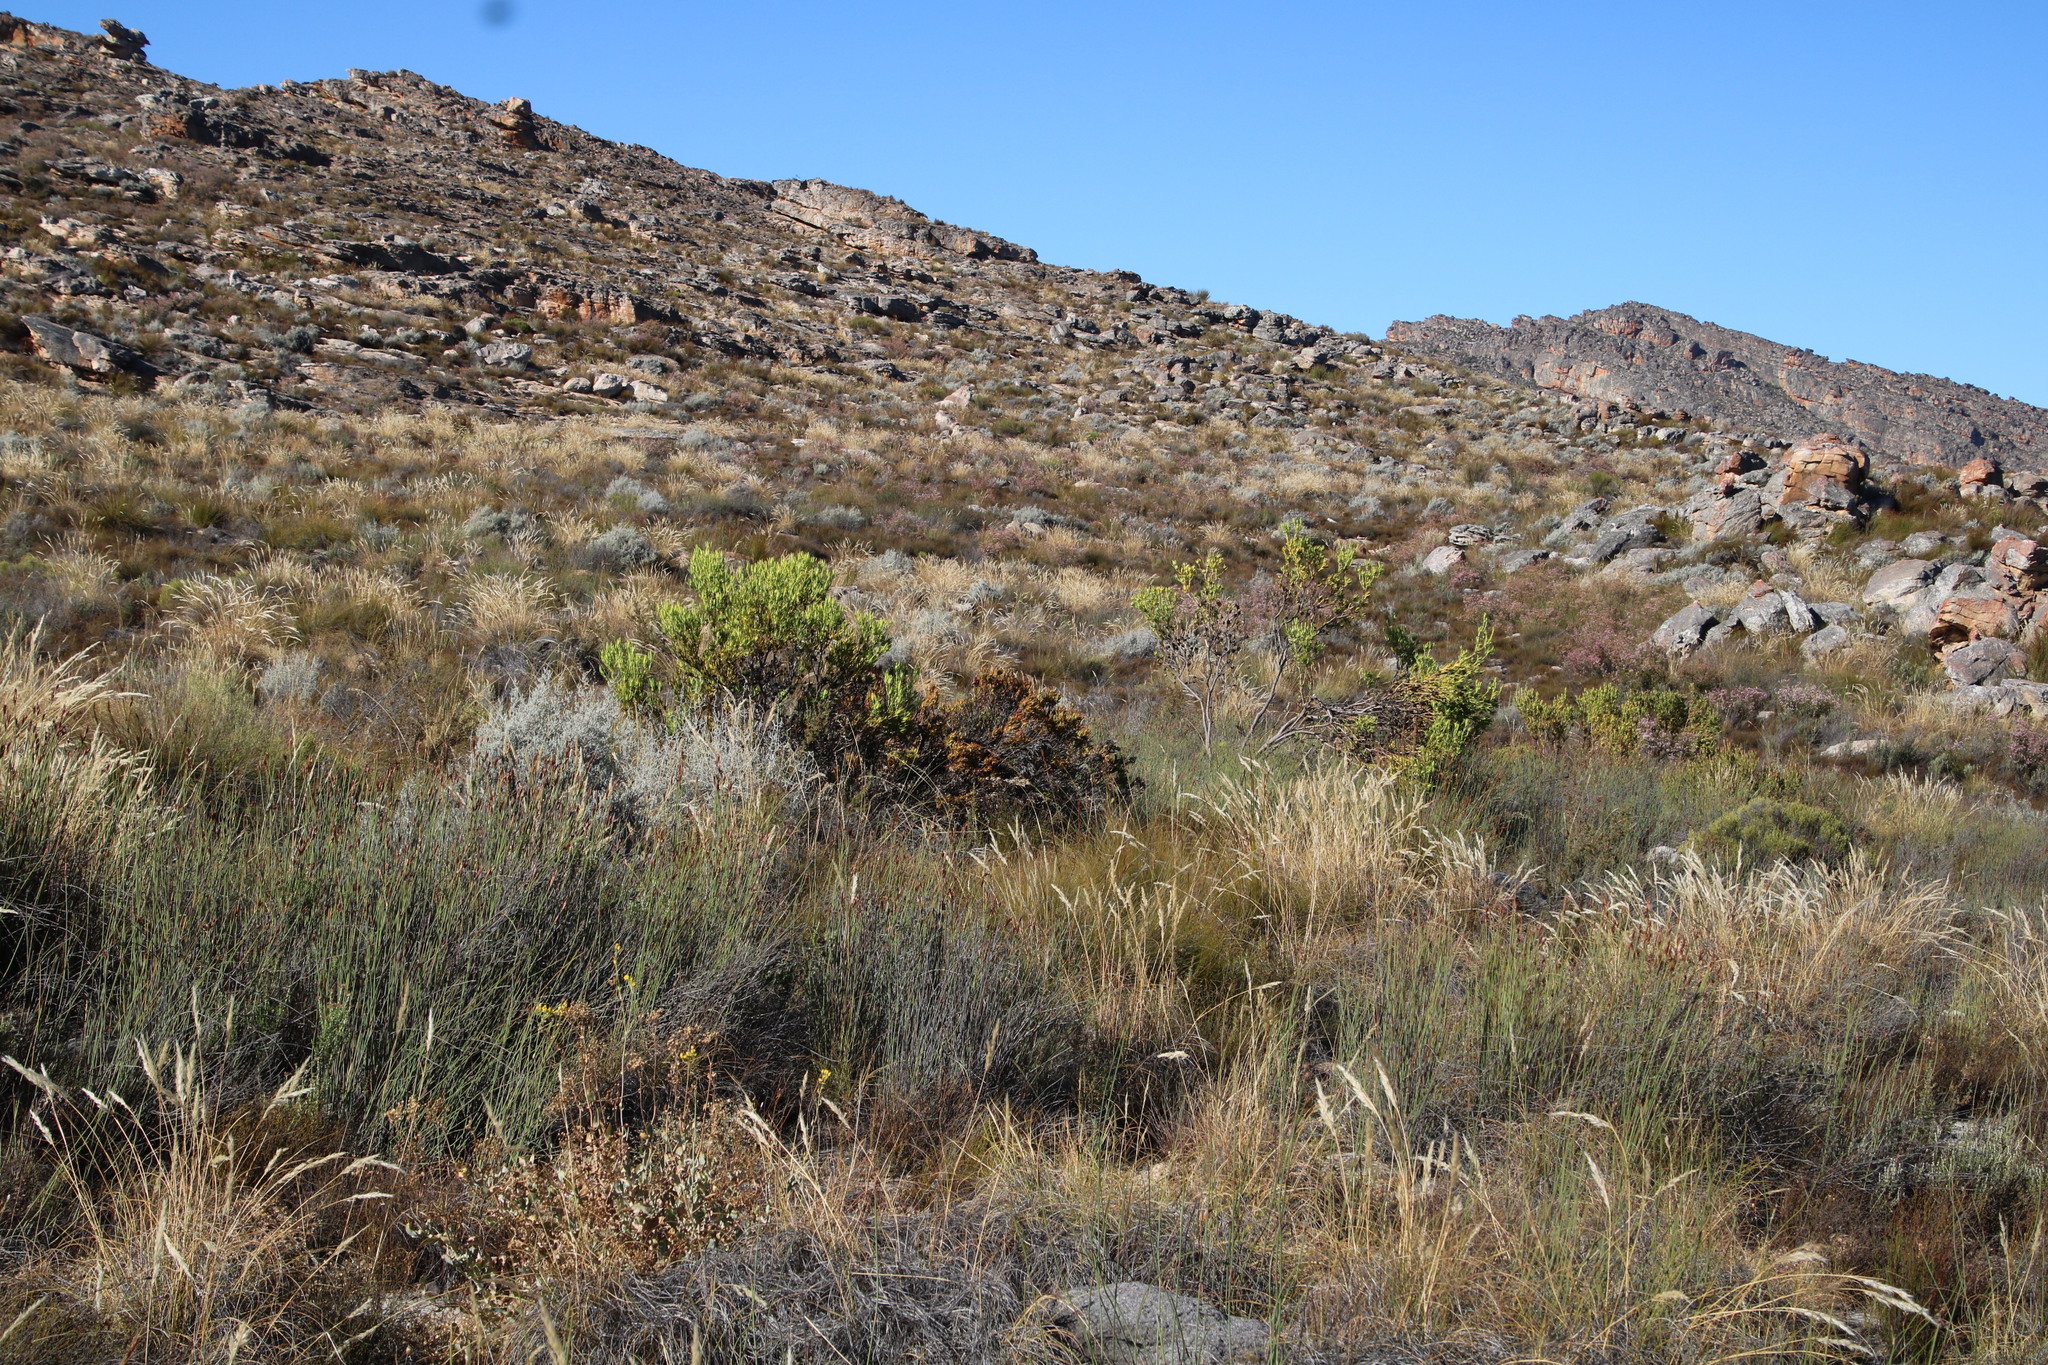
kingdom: Plantae
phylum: Tracheophyta
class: Magnoliopsida
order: Proteales
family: Proteaceae
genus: Leucadendron
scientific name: Leucadendron salignum
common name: Common sunshine conebush
